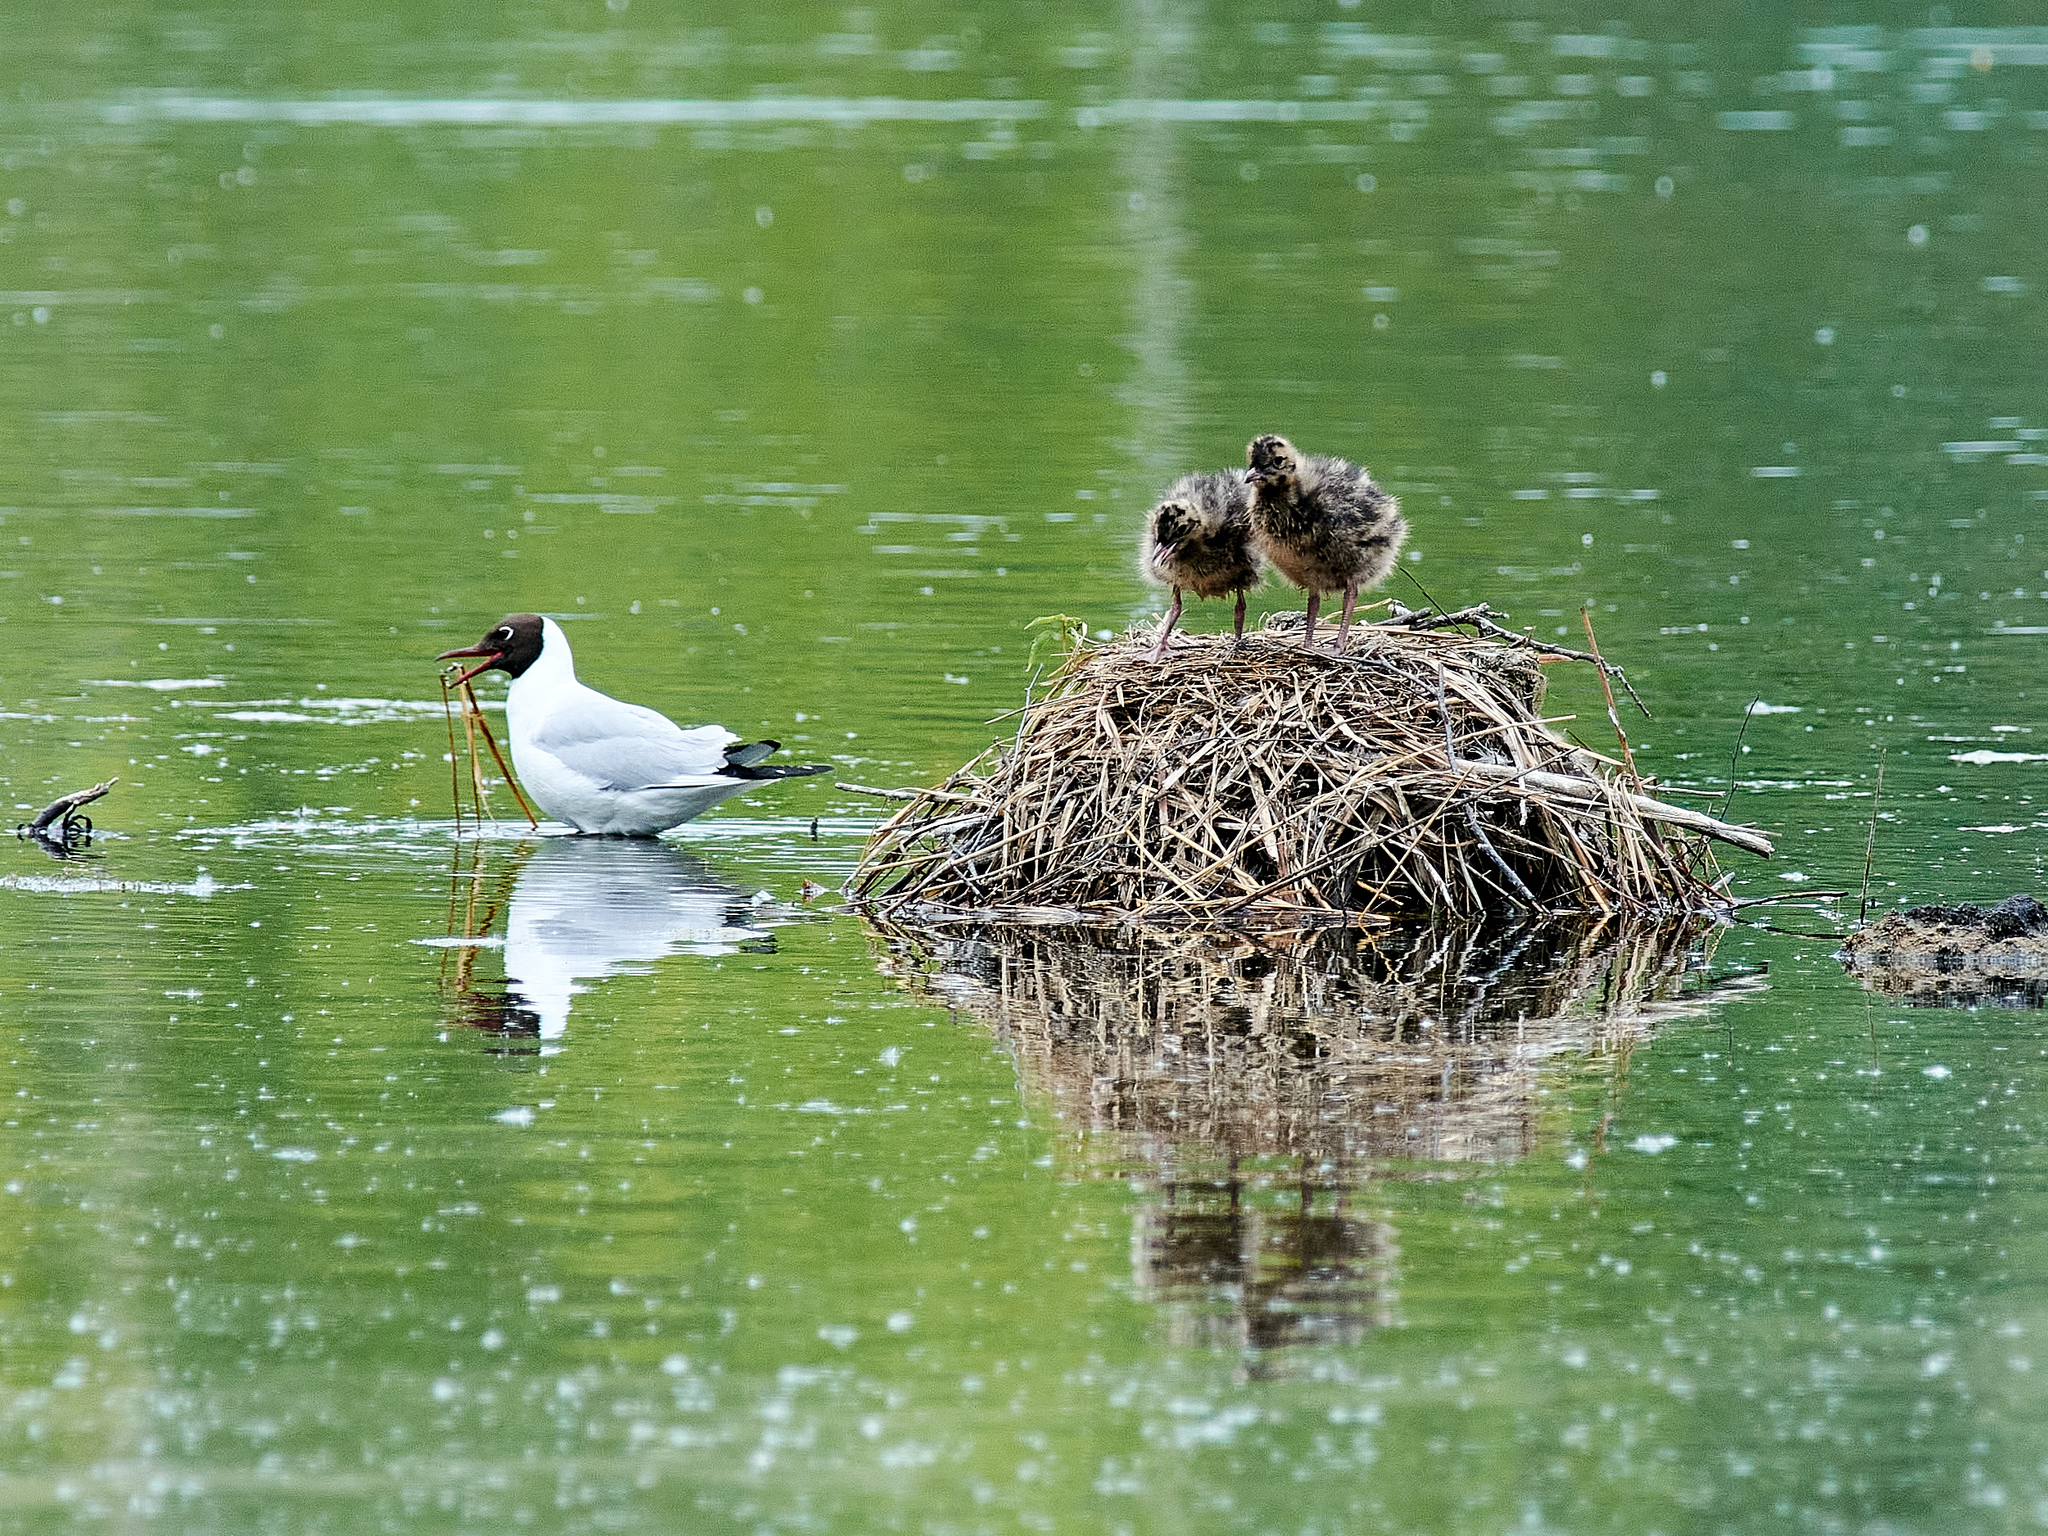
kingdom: Animalia
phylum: Chordata
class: Aves
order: Charadriiformes
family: Laridae
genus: Chroicocephalus
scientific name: Chroicocephalus ridibundus
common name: Black-headed gull
